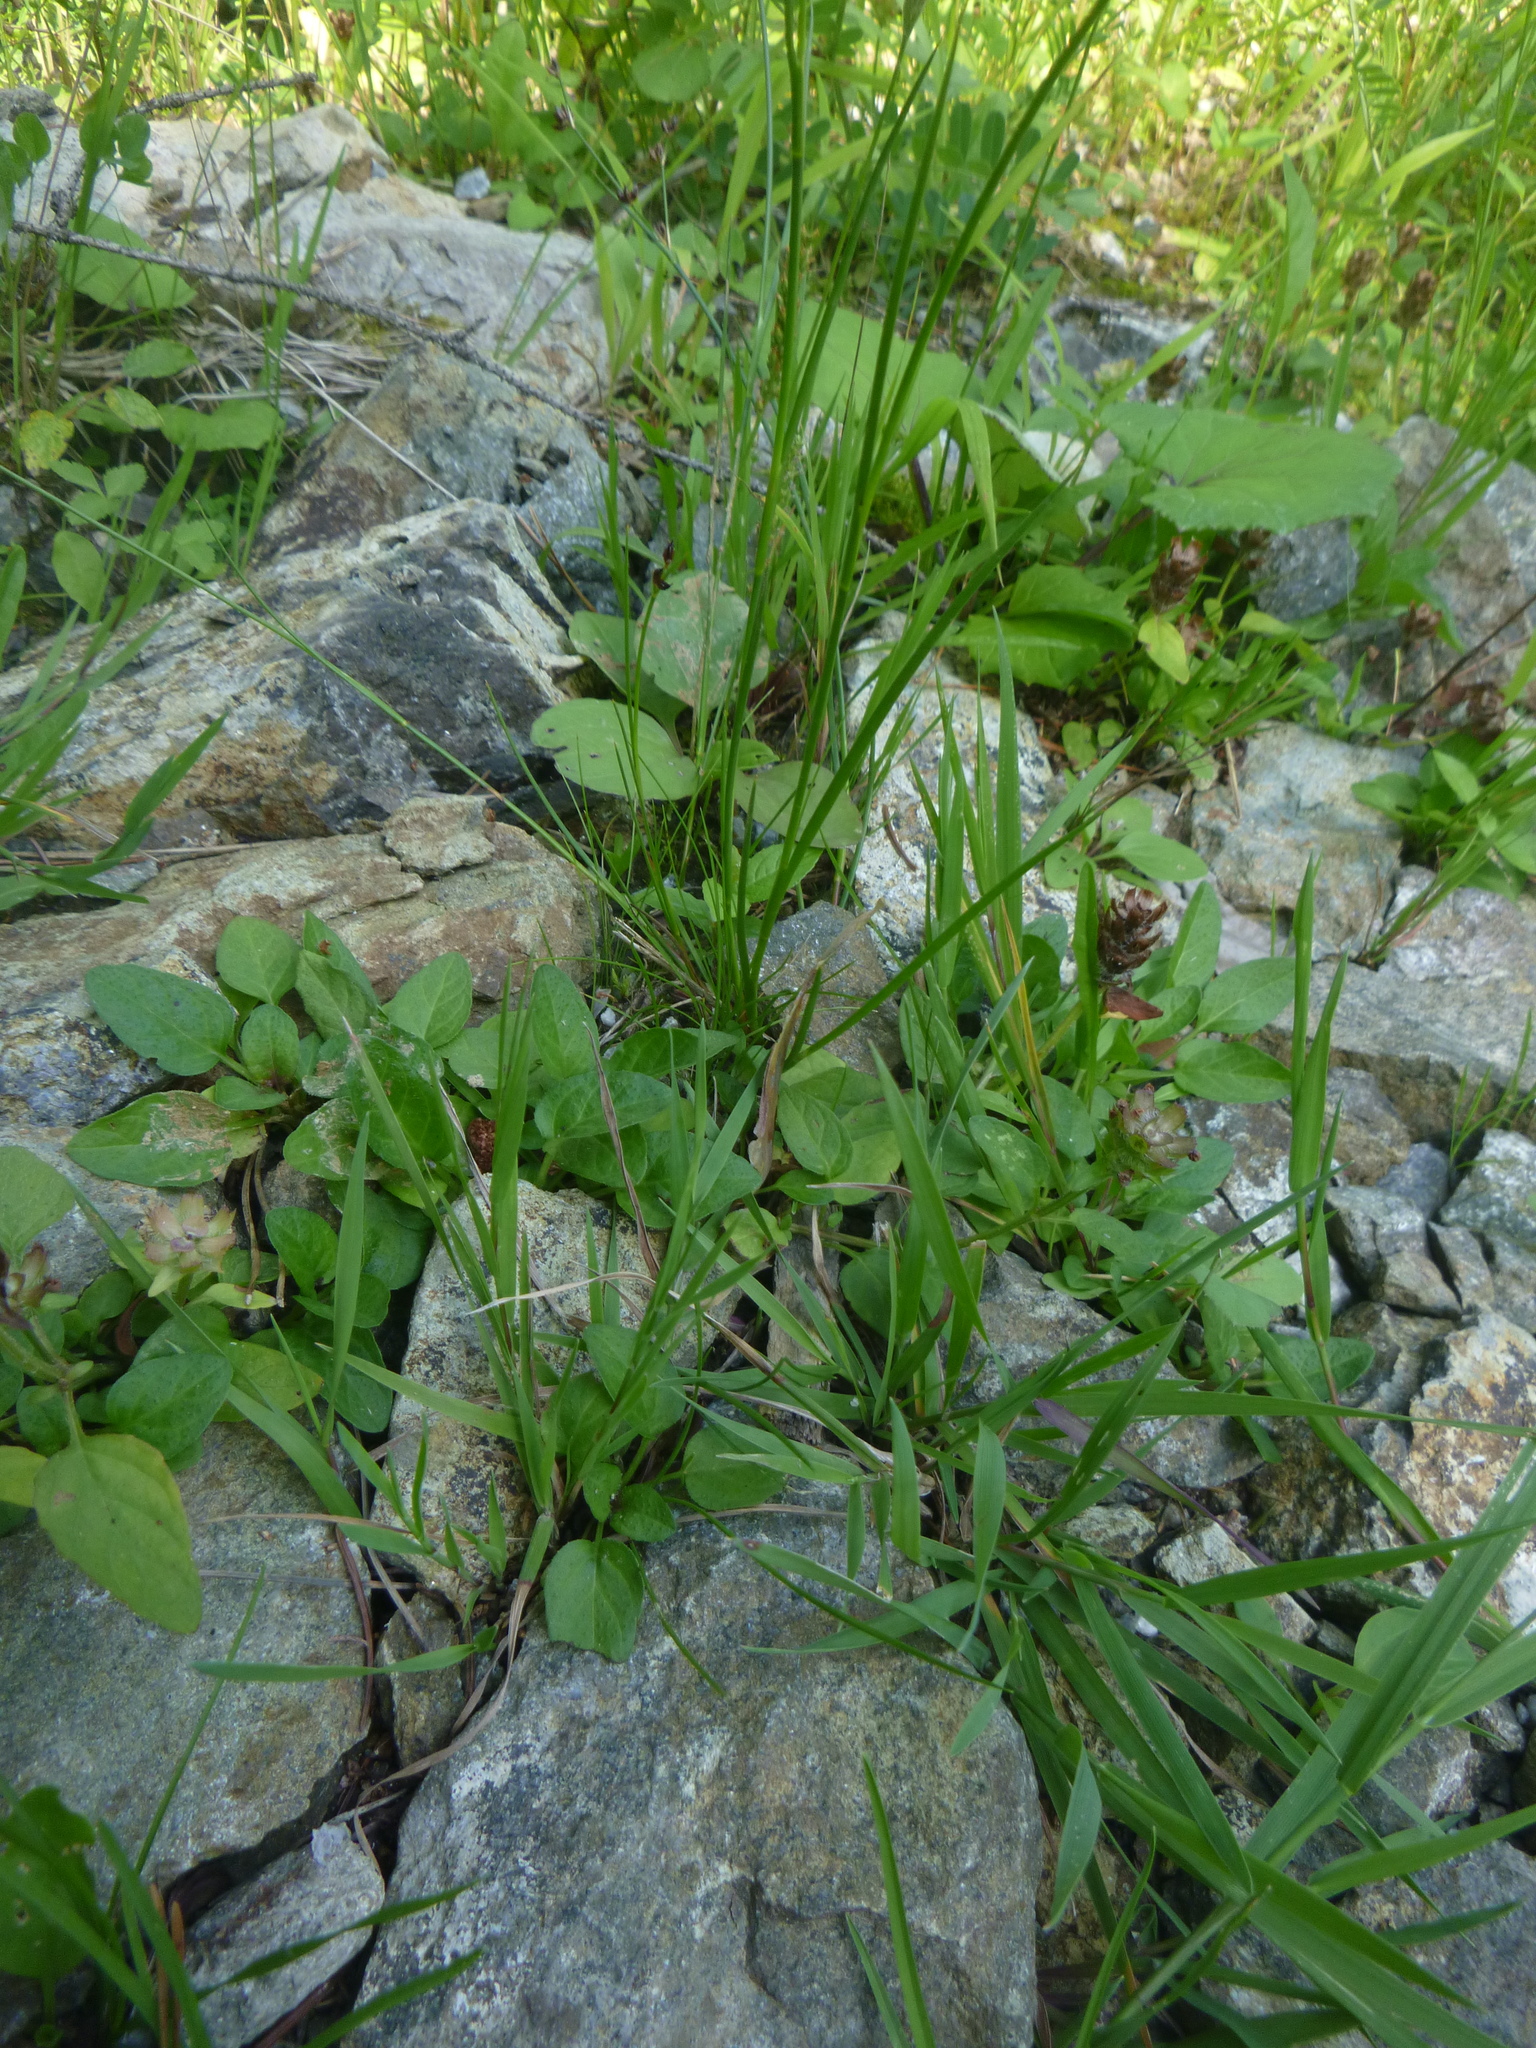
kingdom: Plantae
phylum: Tracheophyta
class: Liliopsida
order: Poales
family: Juncaceae
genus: Juncus
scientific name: Juncus articulatus
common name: Jointed rush
